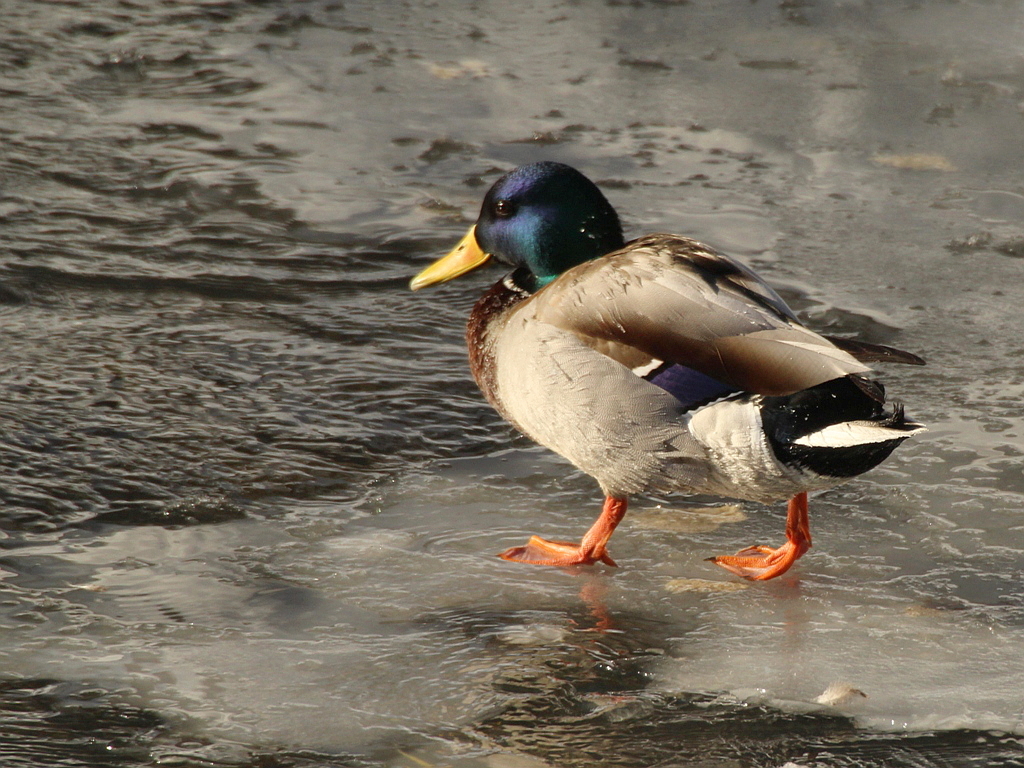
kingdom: Animalia
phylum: Chordata
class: Aves
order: Anseriformes
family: Anatidae
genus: Anas
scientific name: Anas platyrhynchos
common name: Mallard
